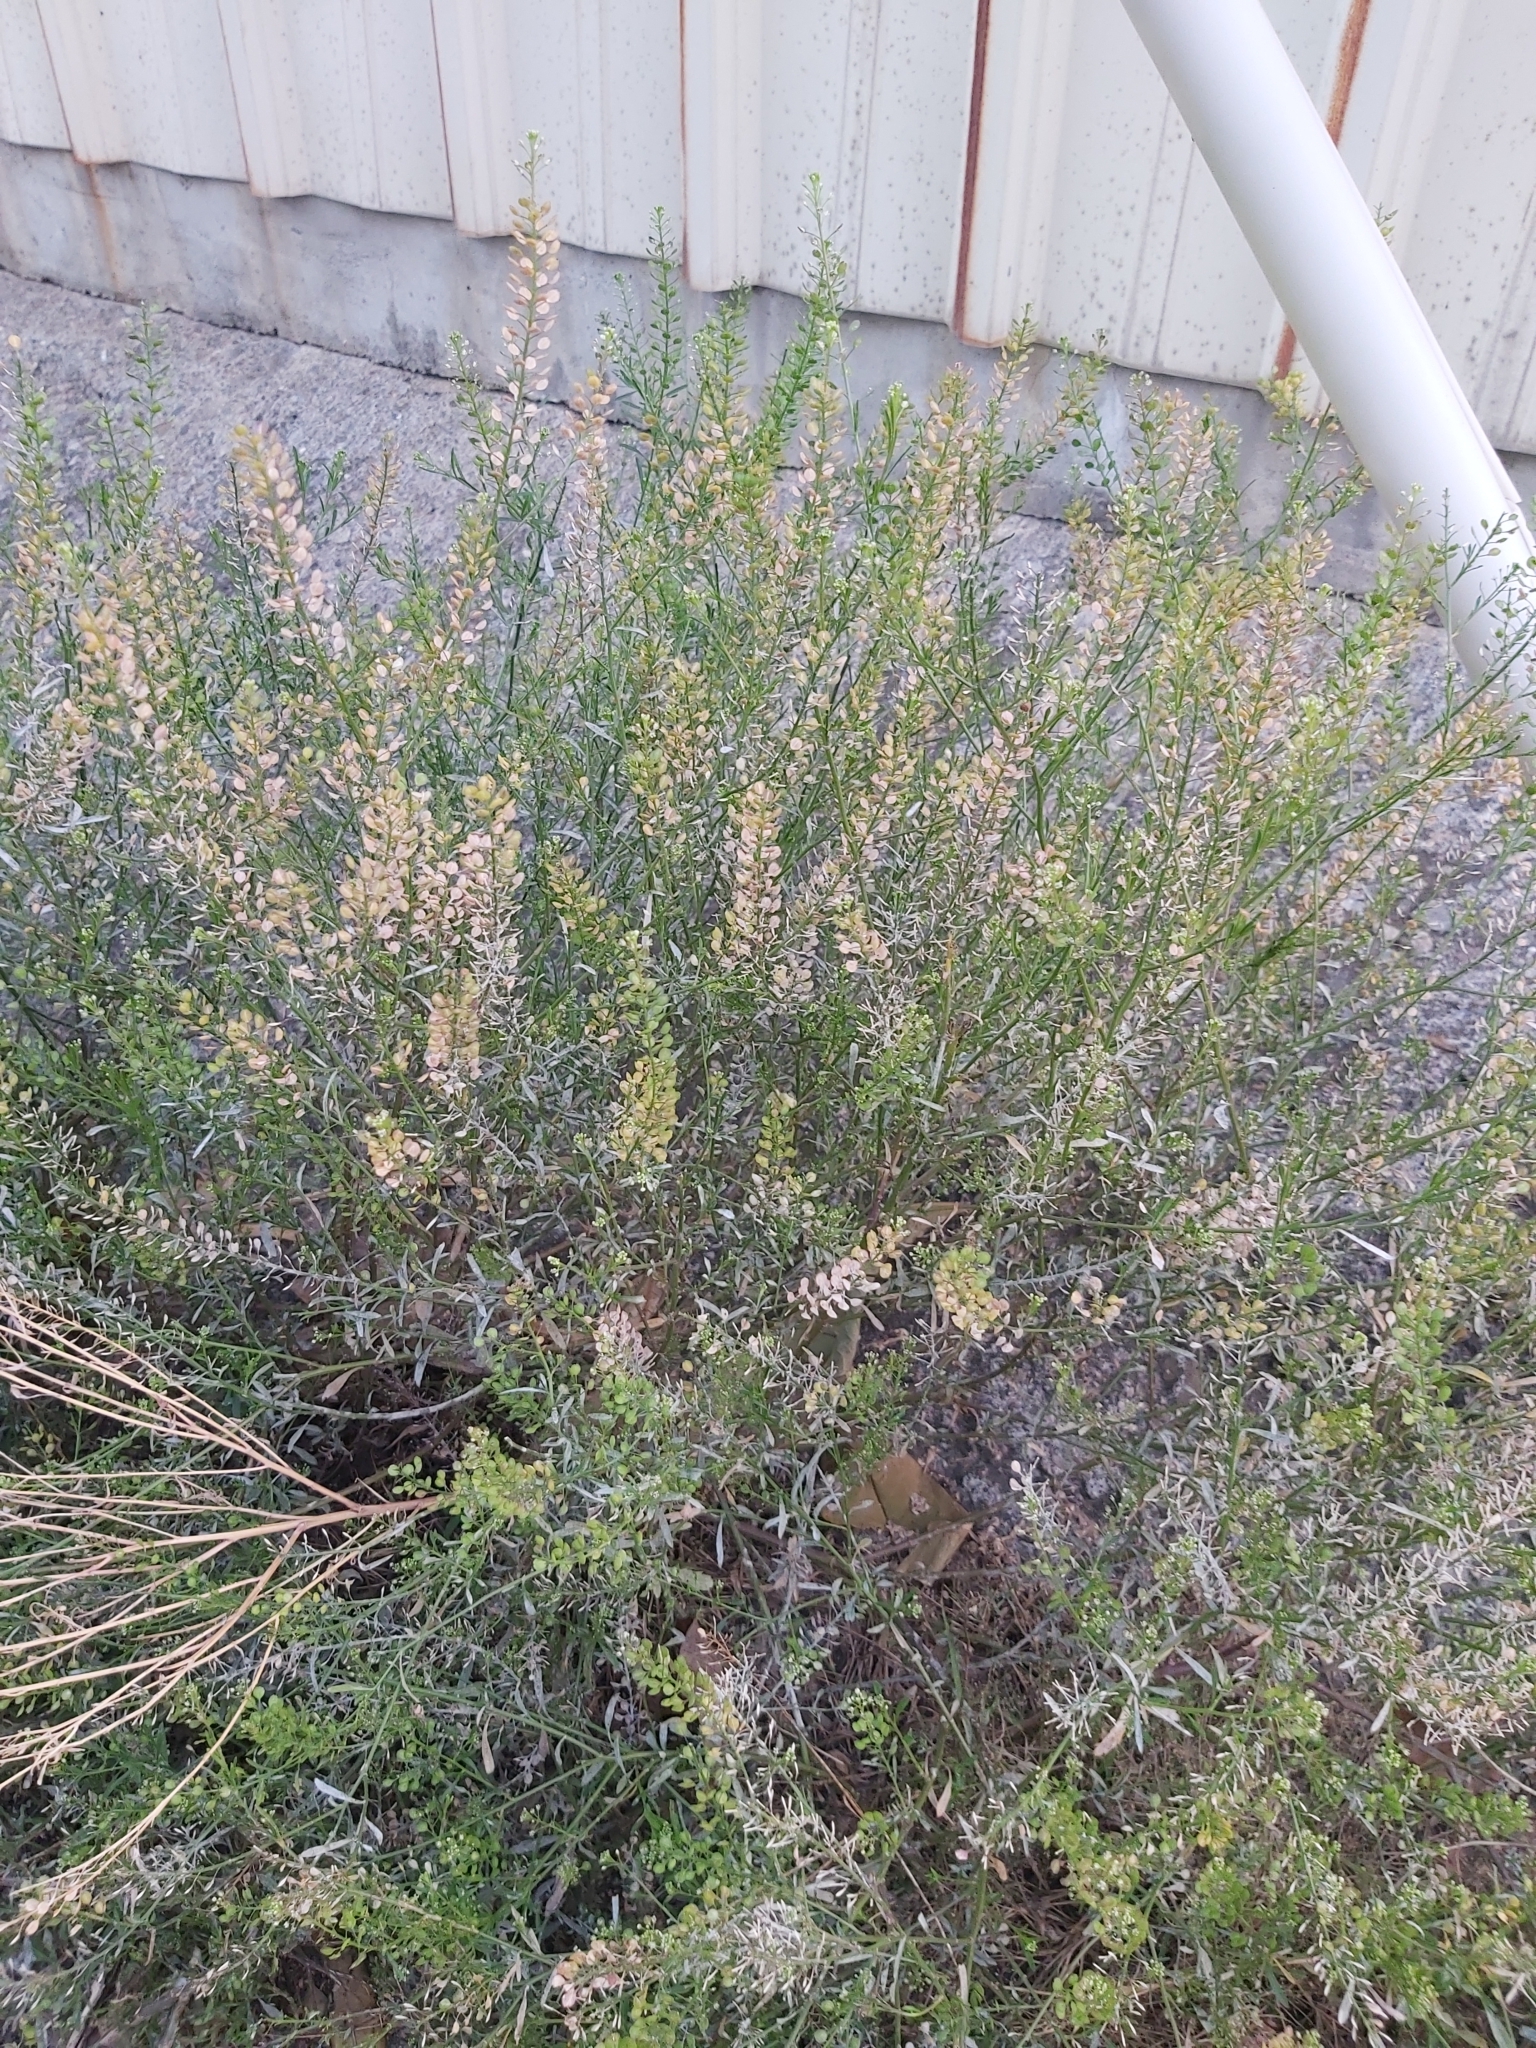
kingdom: Plantae
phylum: Tracheophyta
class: Magnoliopsida
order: Brassicales
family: Brassicaceae
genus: Lepidium
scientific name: Lepidium bonariense
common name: Argentine pepperwort
